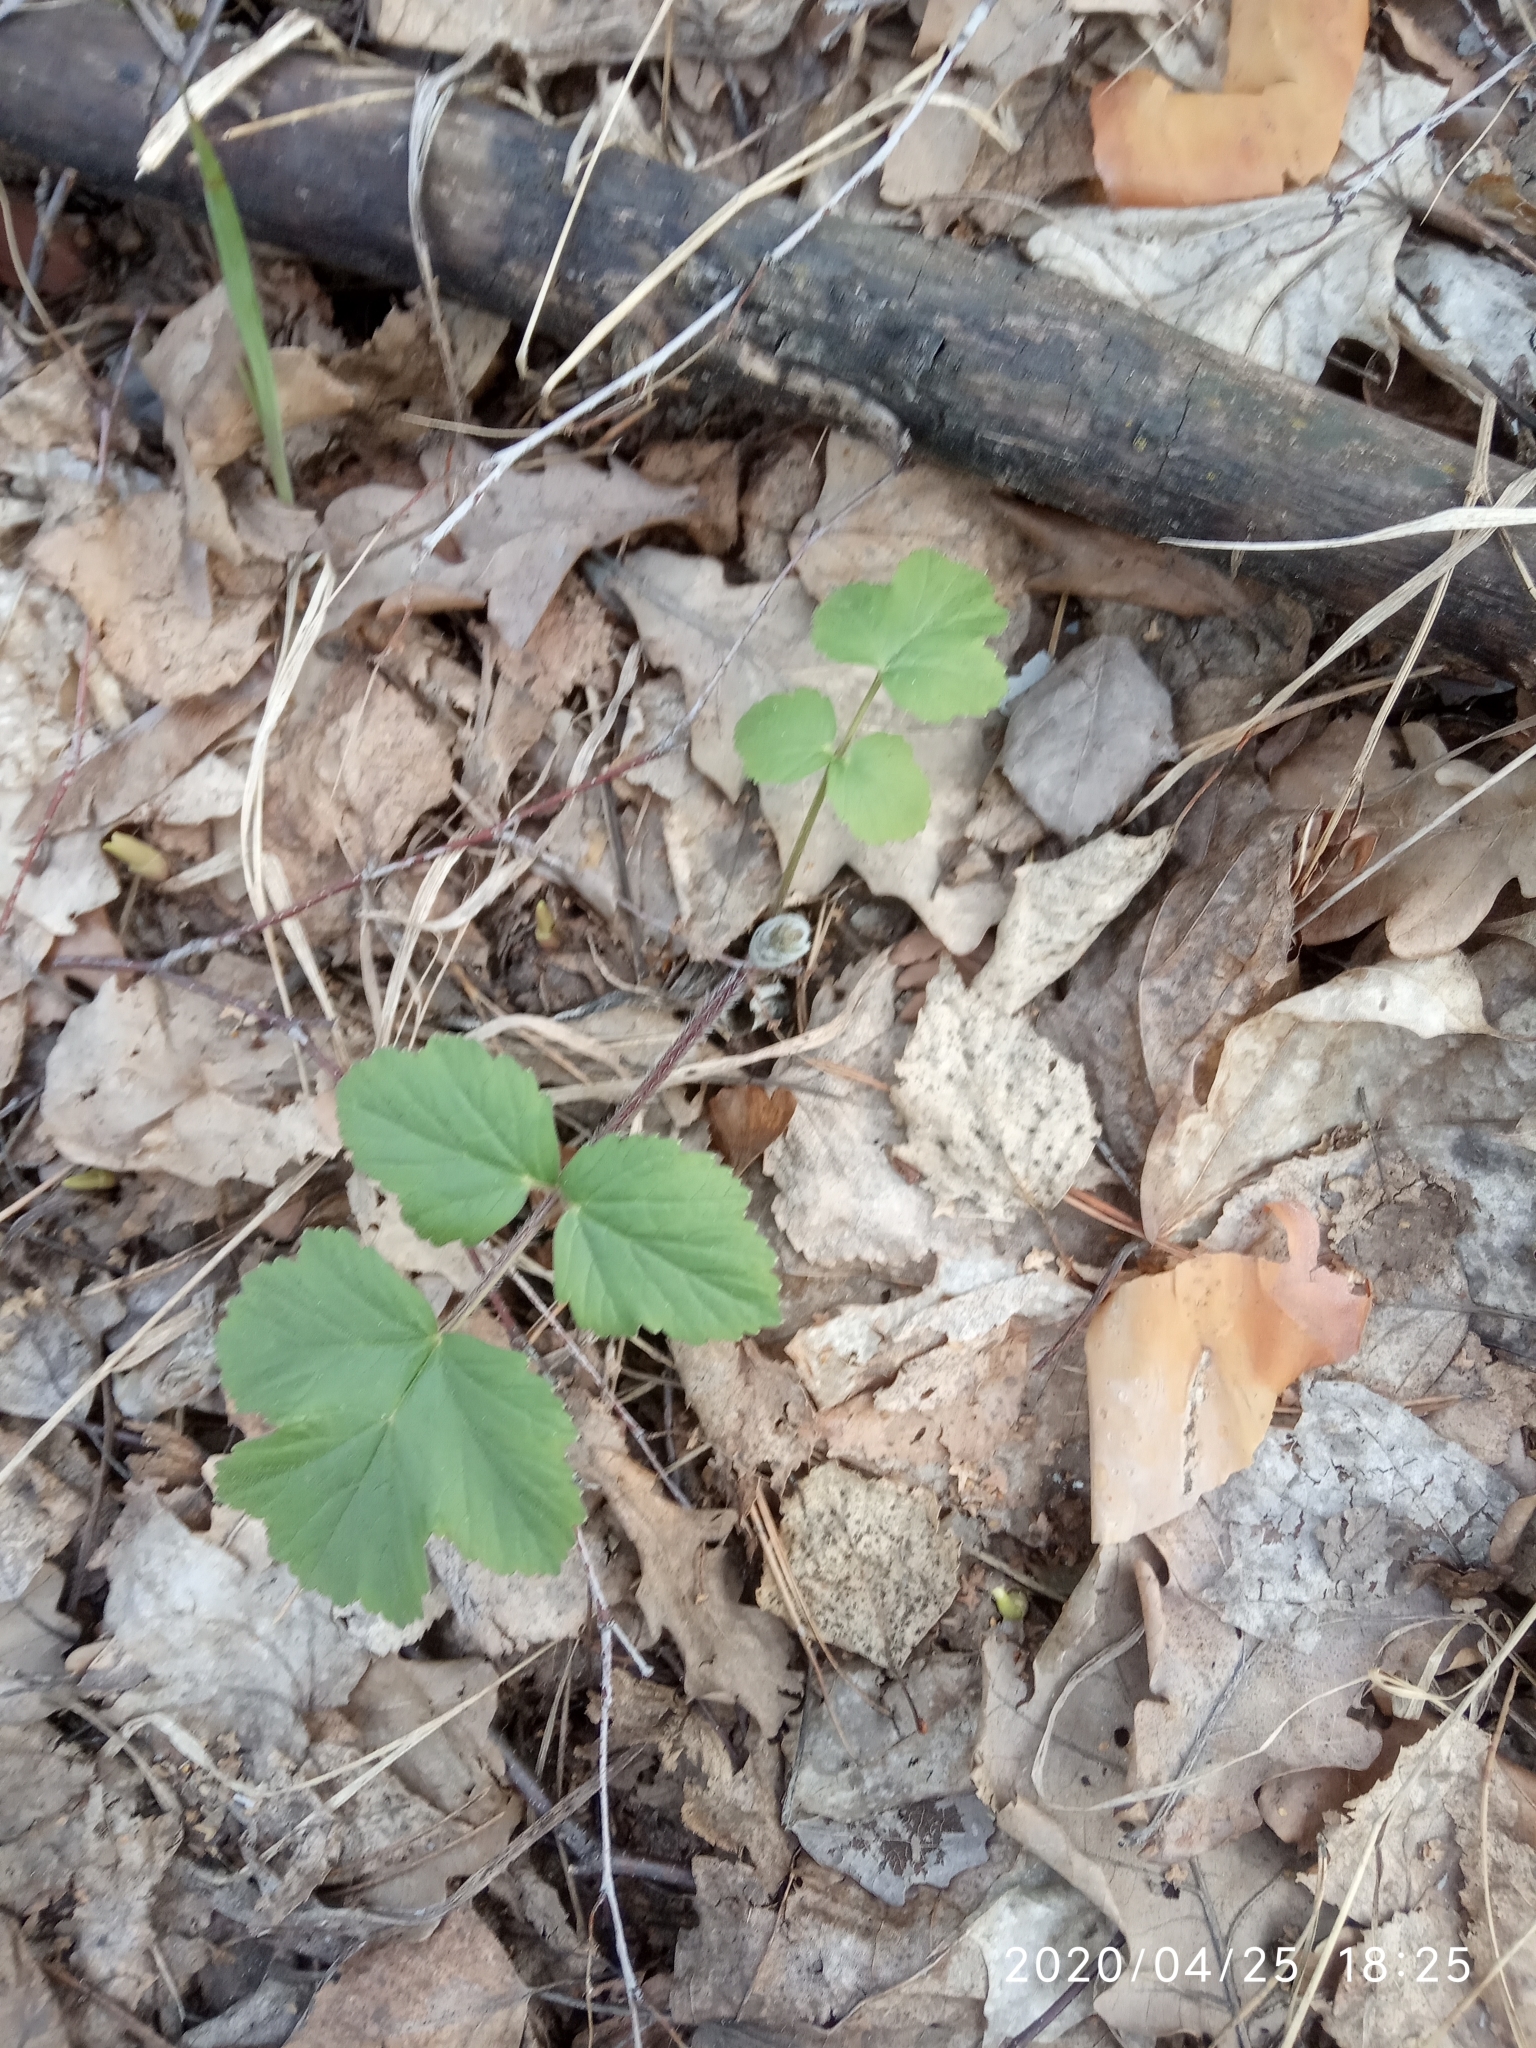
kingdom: Plantae
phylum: Tracheophyta
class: Magnoliopsida
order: Apiales
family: Apiaceae
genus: Heracleum
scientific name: Heracleum sphondylium
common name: Hogweed
